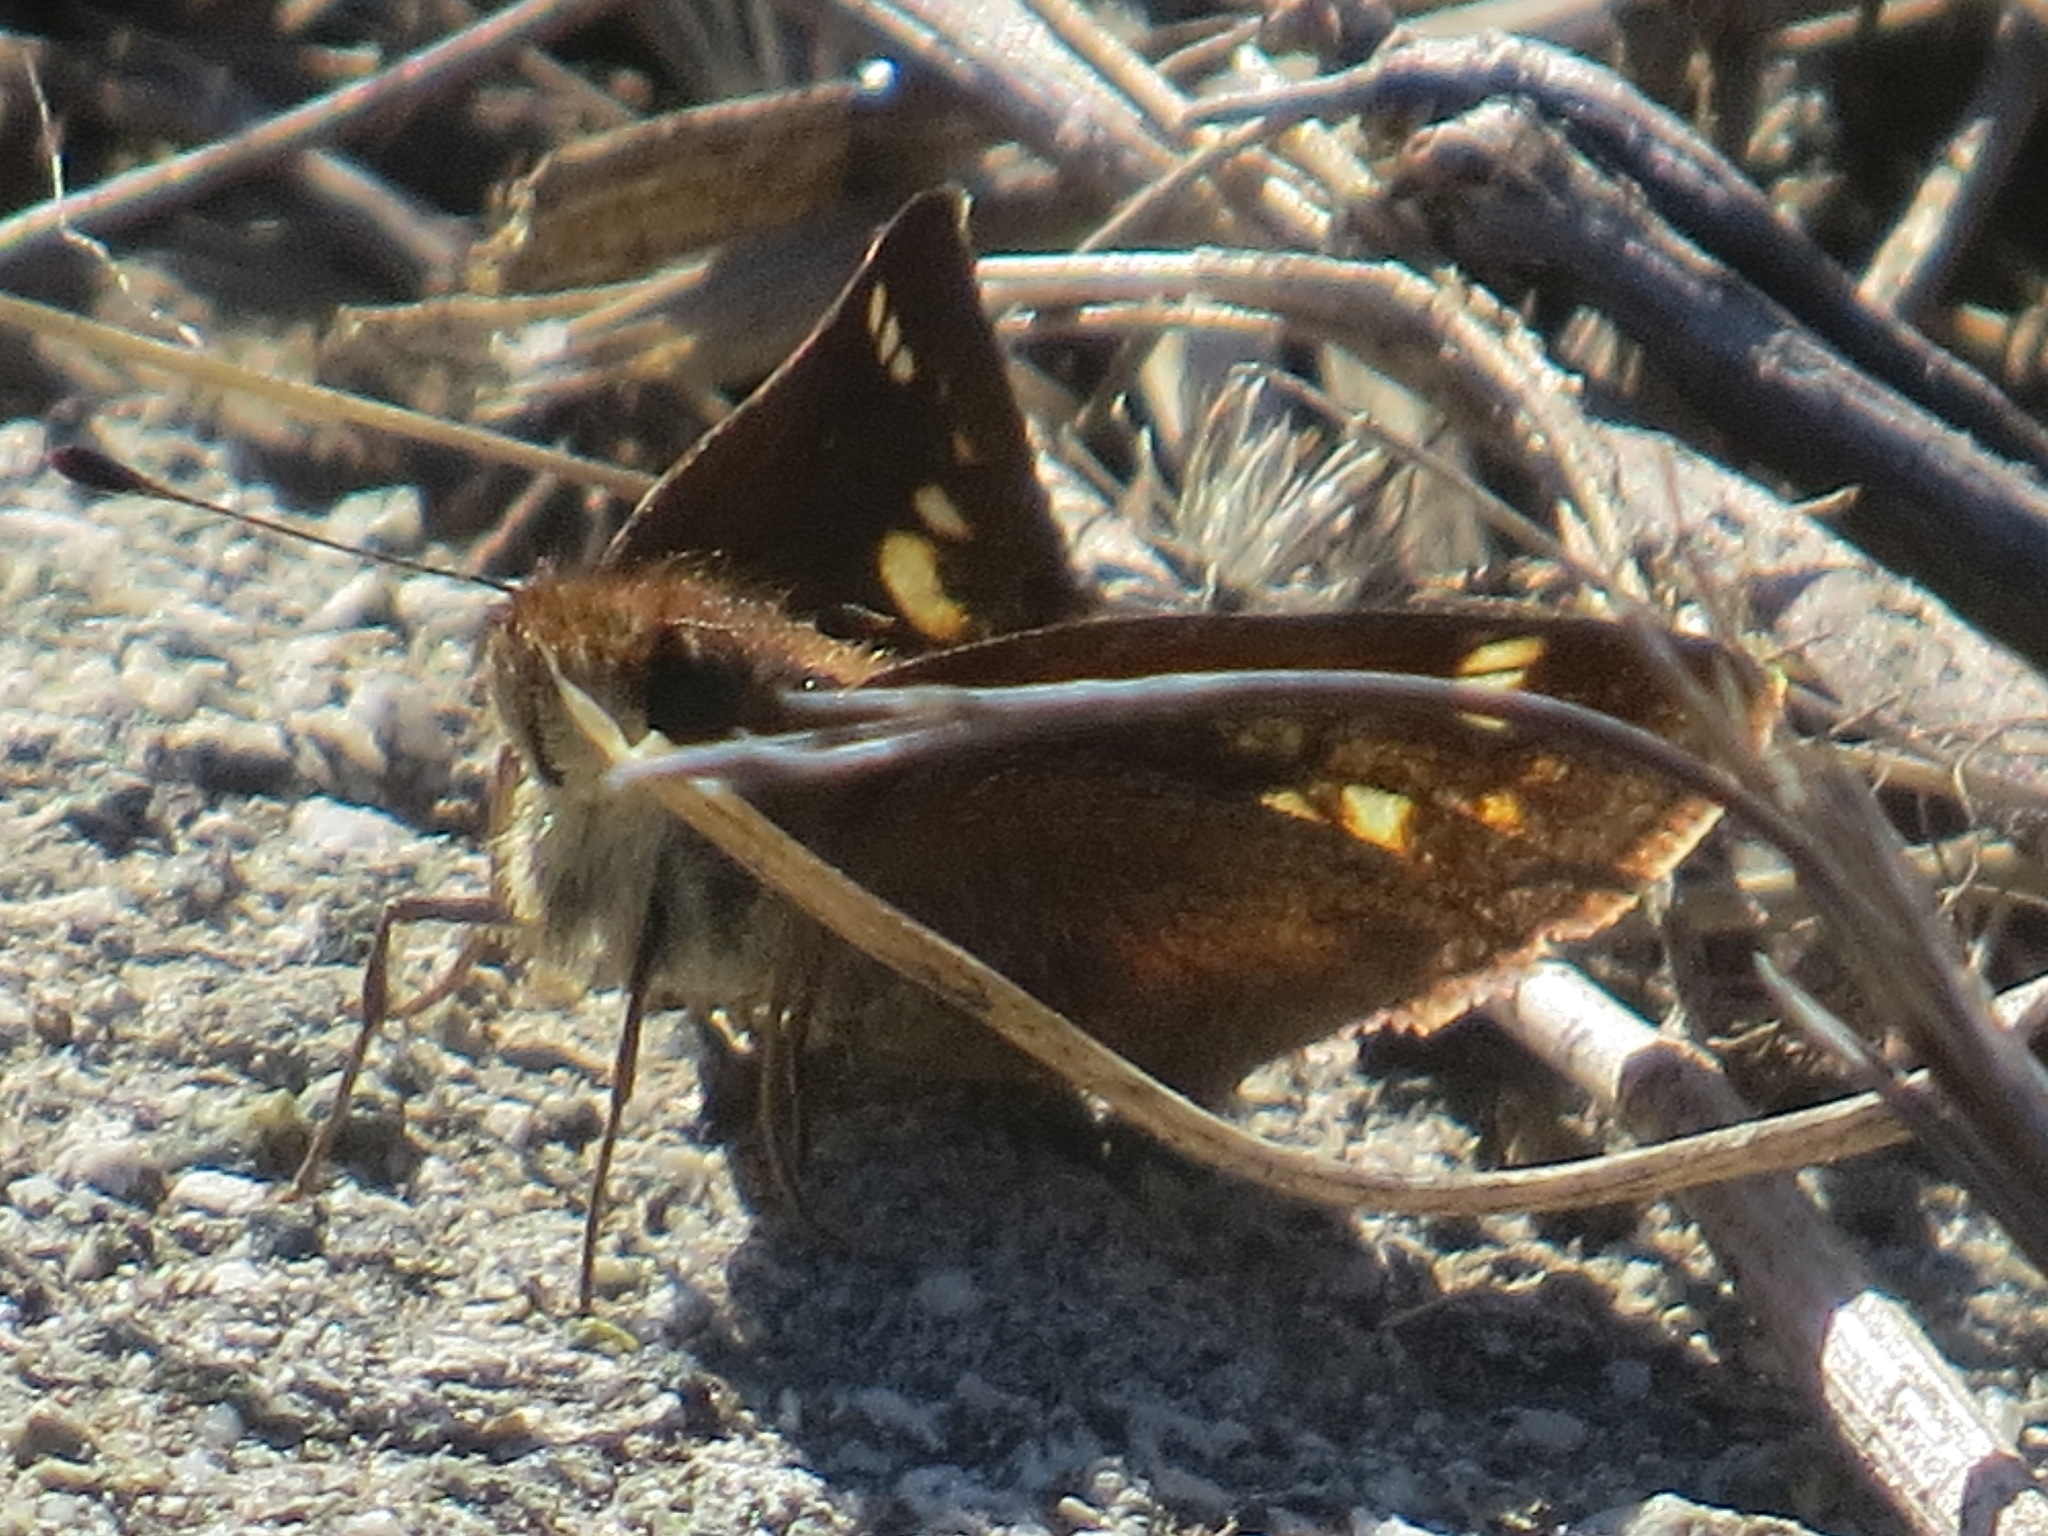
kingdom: Animalia
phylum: Arthropoda
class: Insecta
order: Lepidoptera
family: Hesperiidae
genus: Lon
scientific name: Lon melane
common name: Umber skipper
